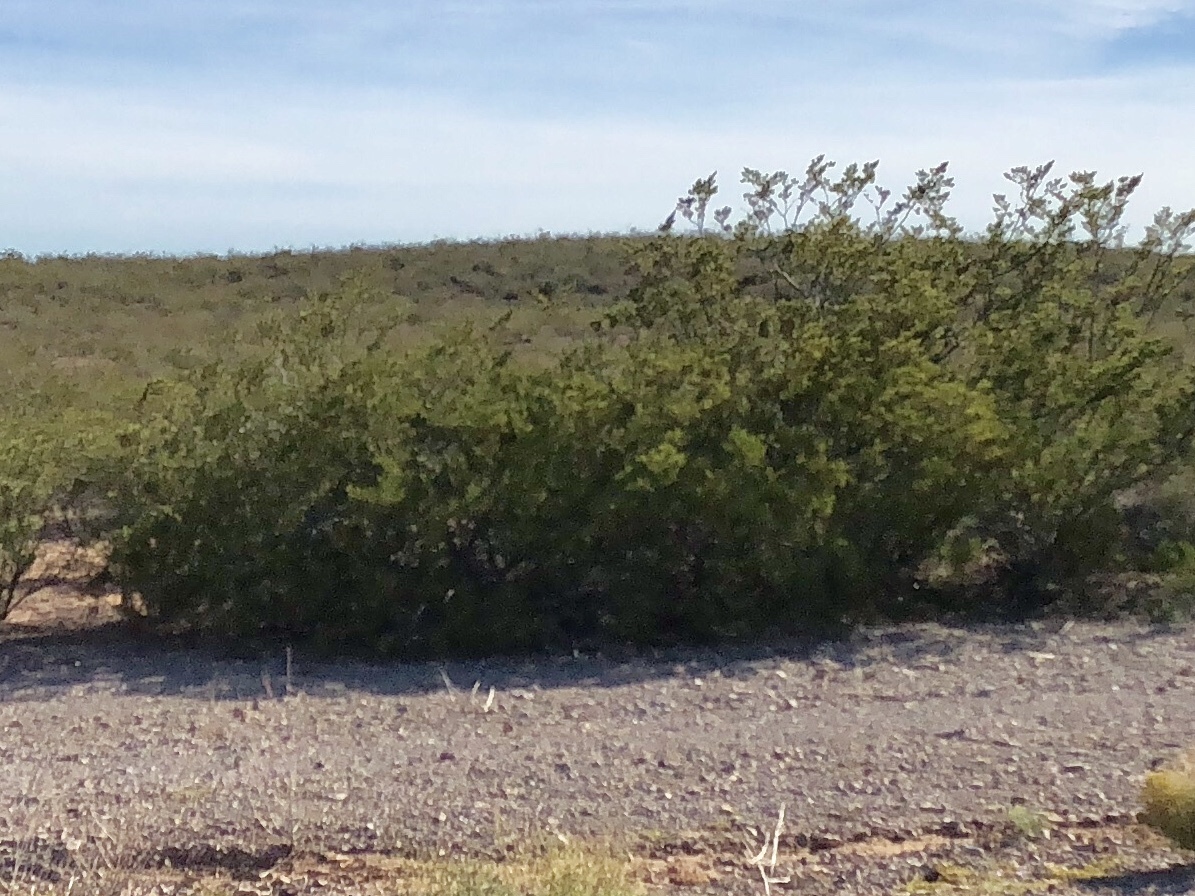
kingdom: Plantae
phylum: Tracheophyta
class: Magnoliopsida
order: Zygophyllales
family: Zygophyllaceae
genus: Larrea
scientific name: Larrea tridentata
